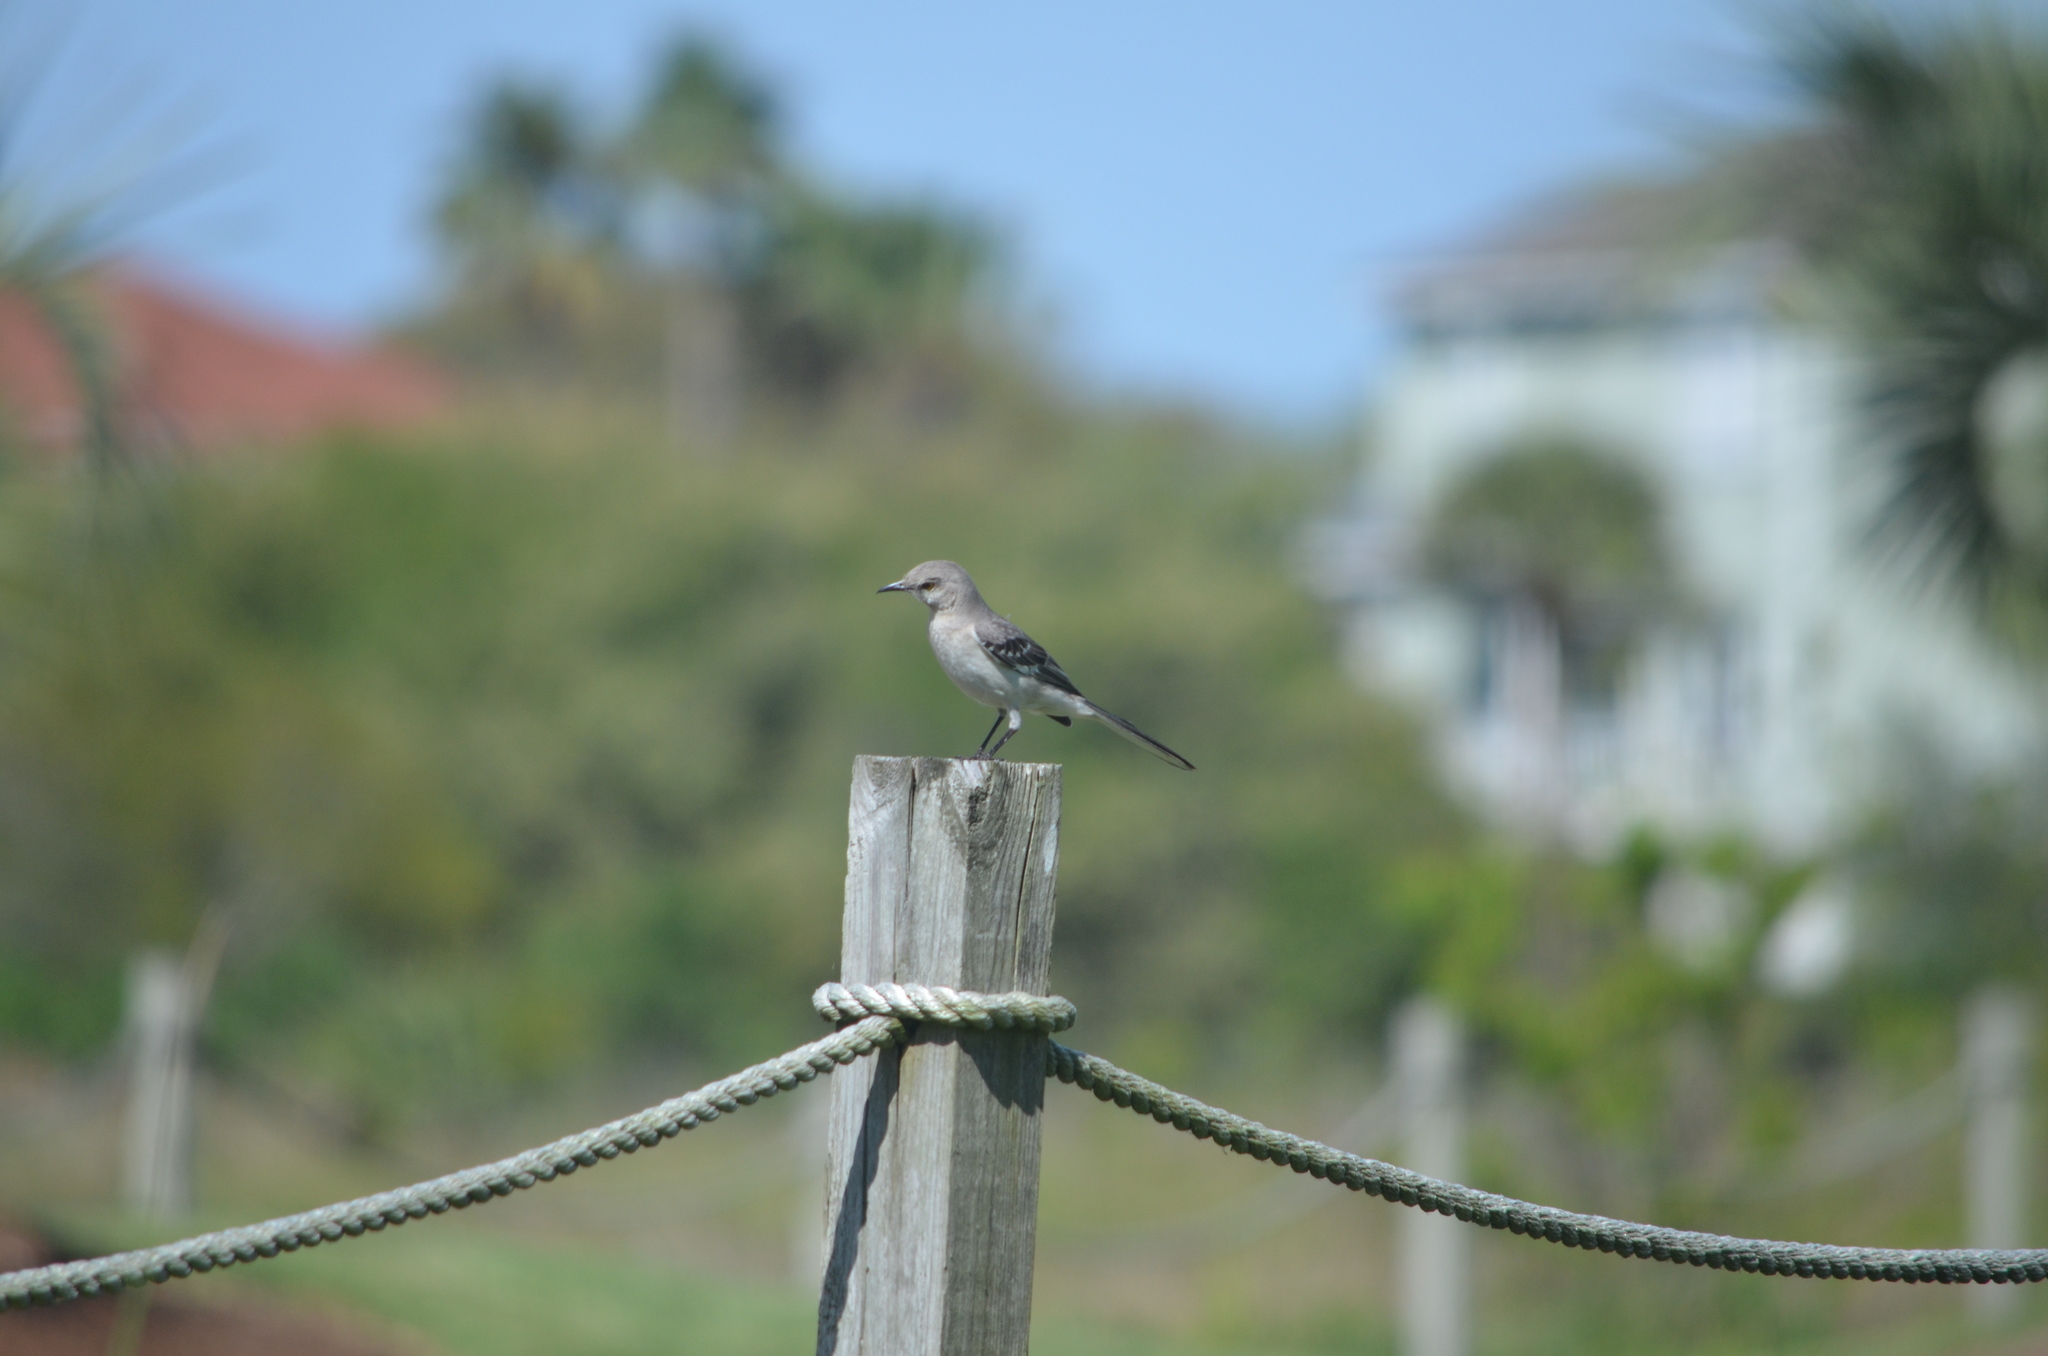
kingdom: Animalia
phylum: Chordata
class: Aves
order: Passeriformes
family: Mimidae
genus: Mimus
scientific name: Mimus polyglottos
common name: Northern mockingbird
